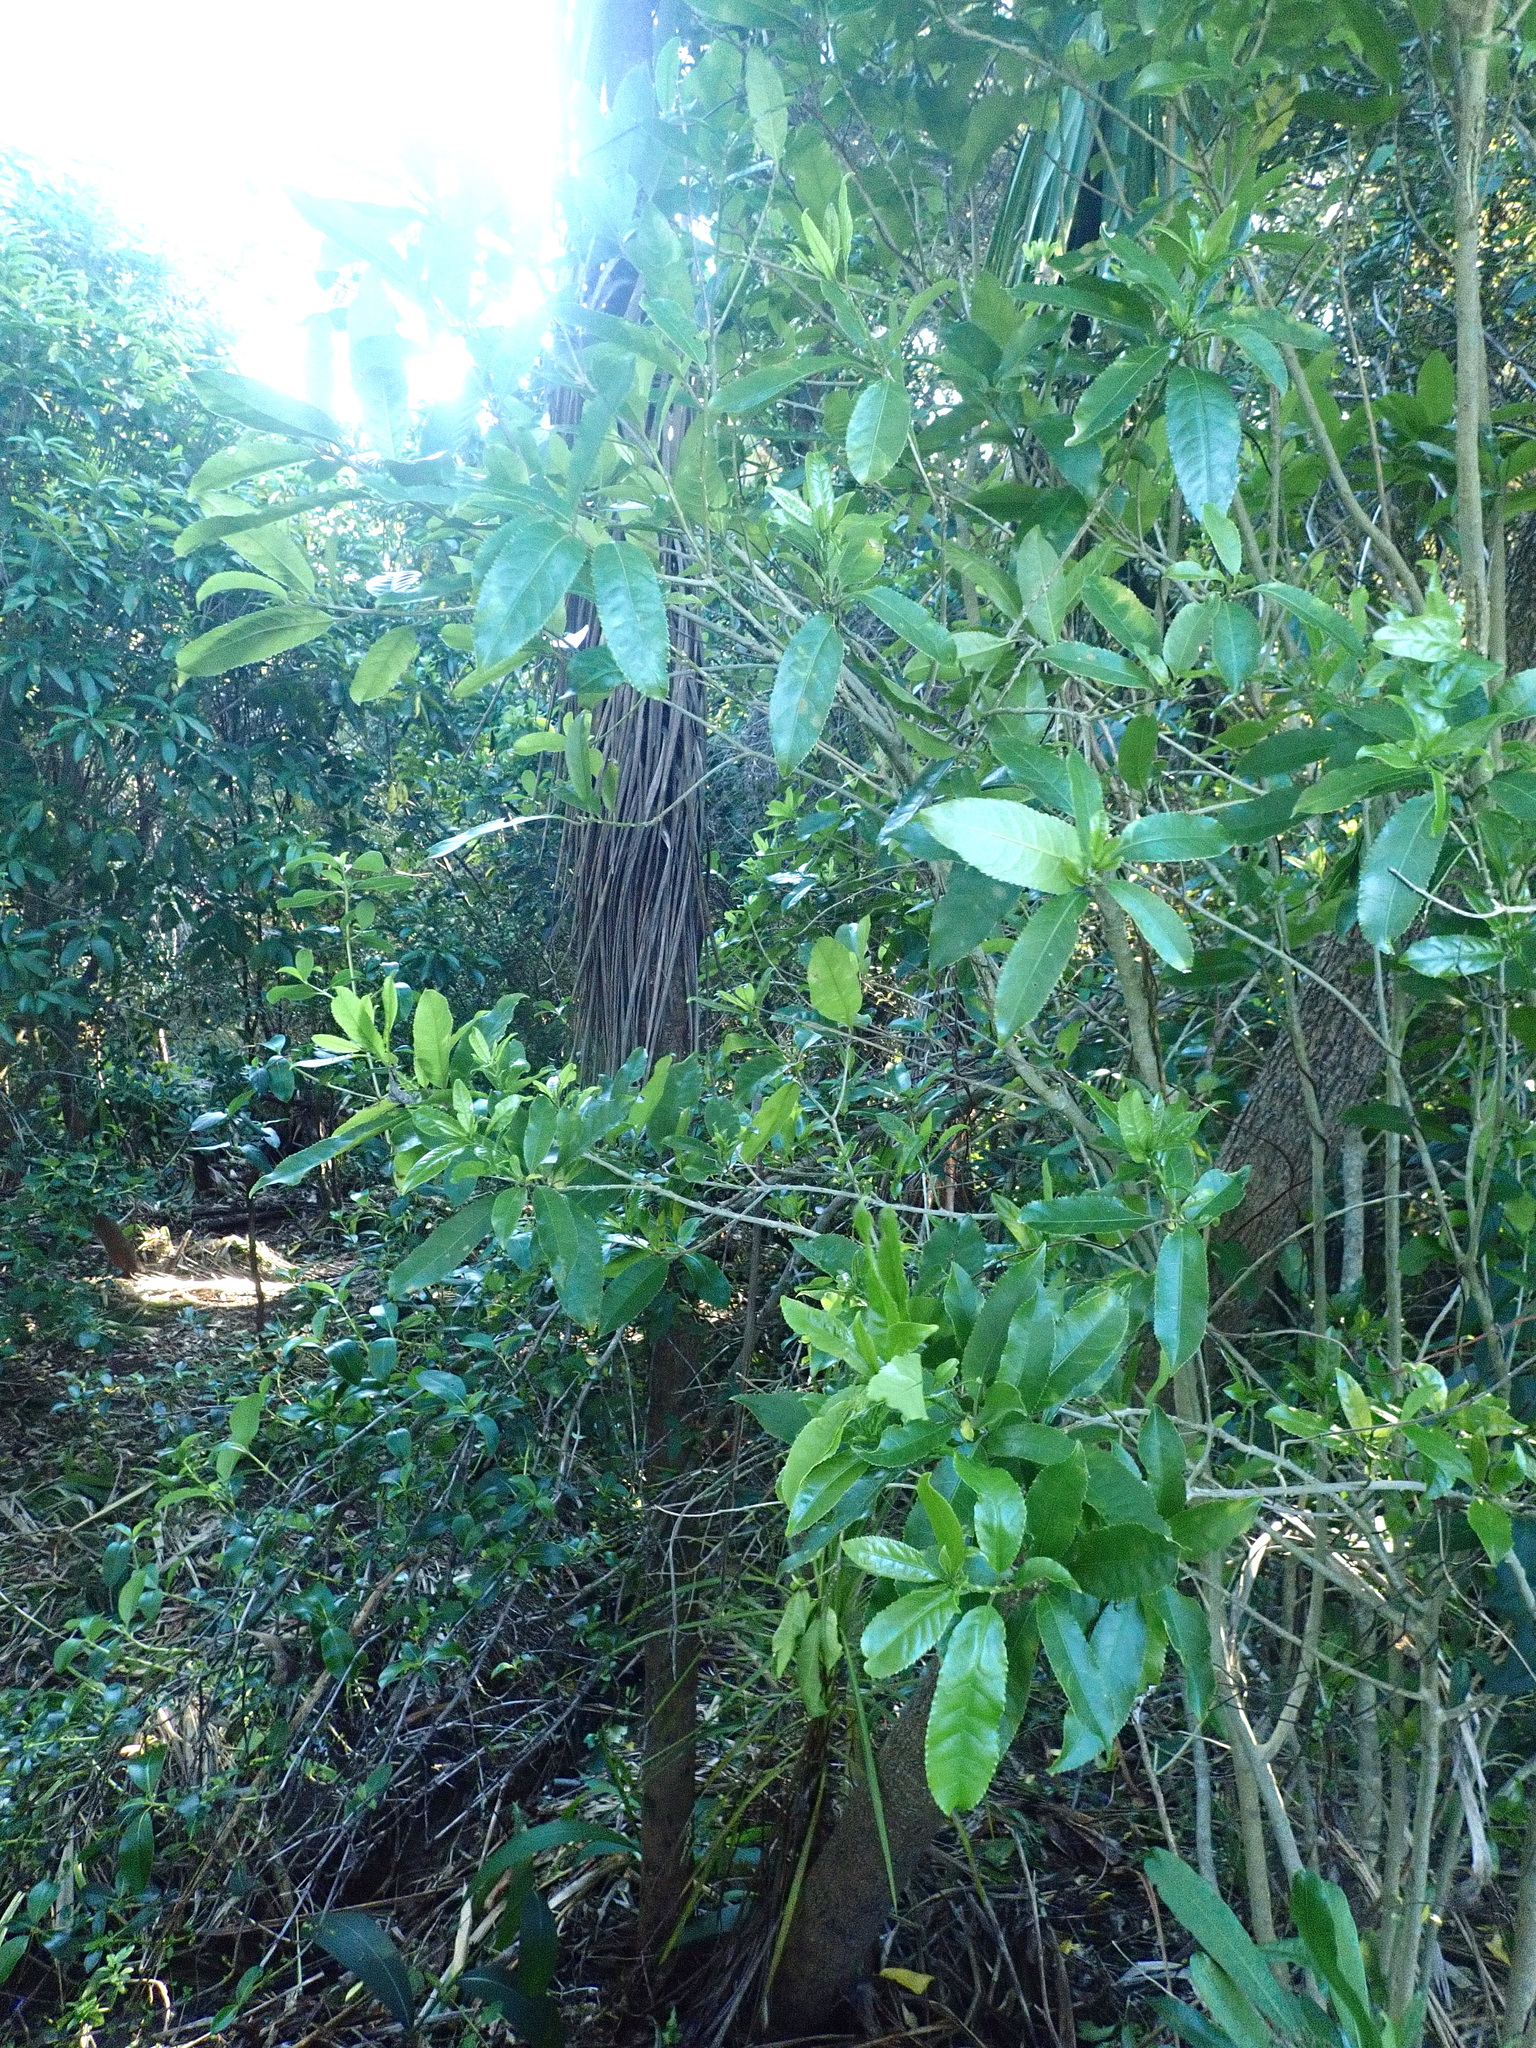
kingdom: Plantae
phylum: Tracheophyta
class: Magnoliopsida
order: Malpighiales
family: Violaceae
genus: Melicytus
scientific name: Melicytus ramiflorus
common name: Mahoe
